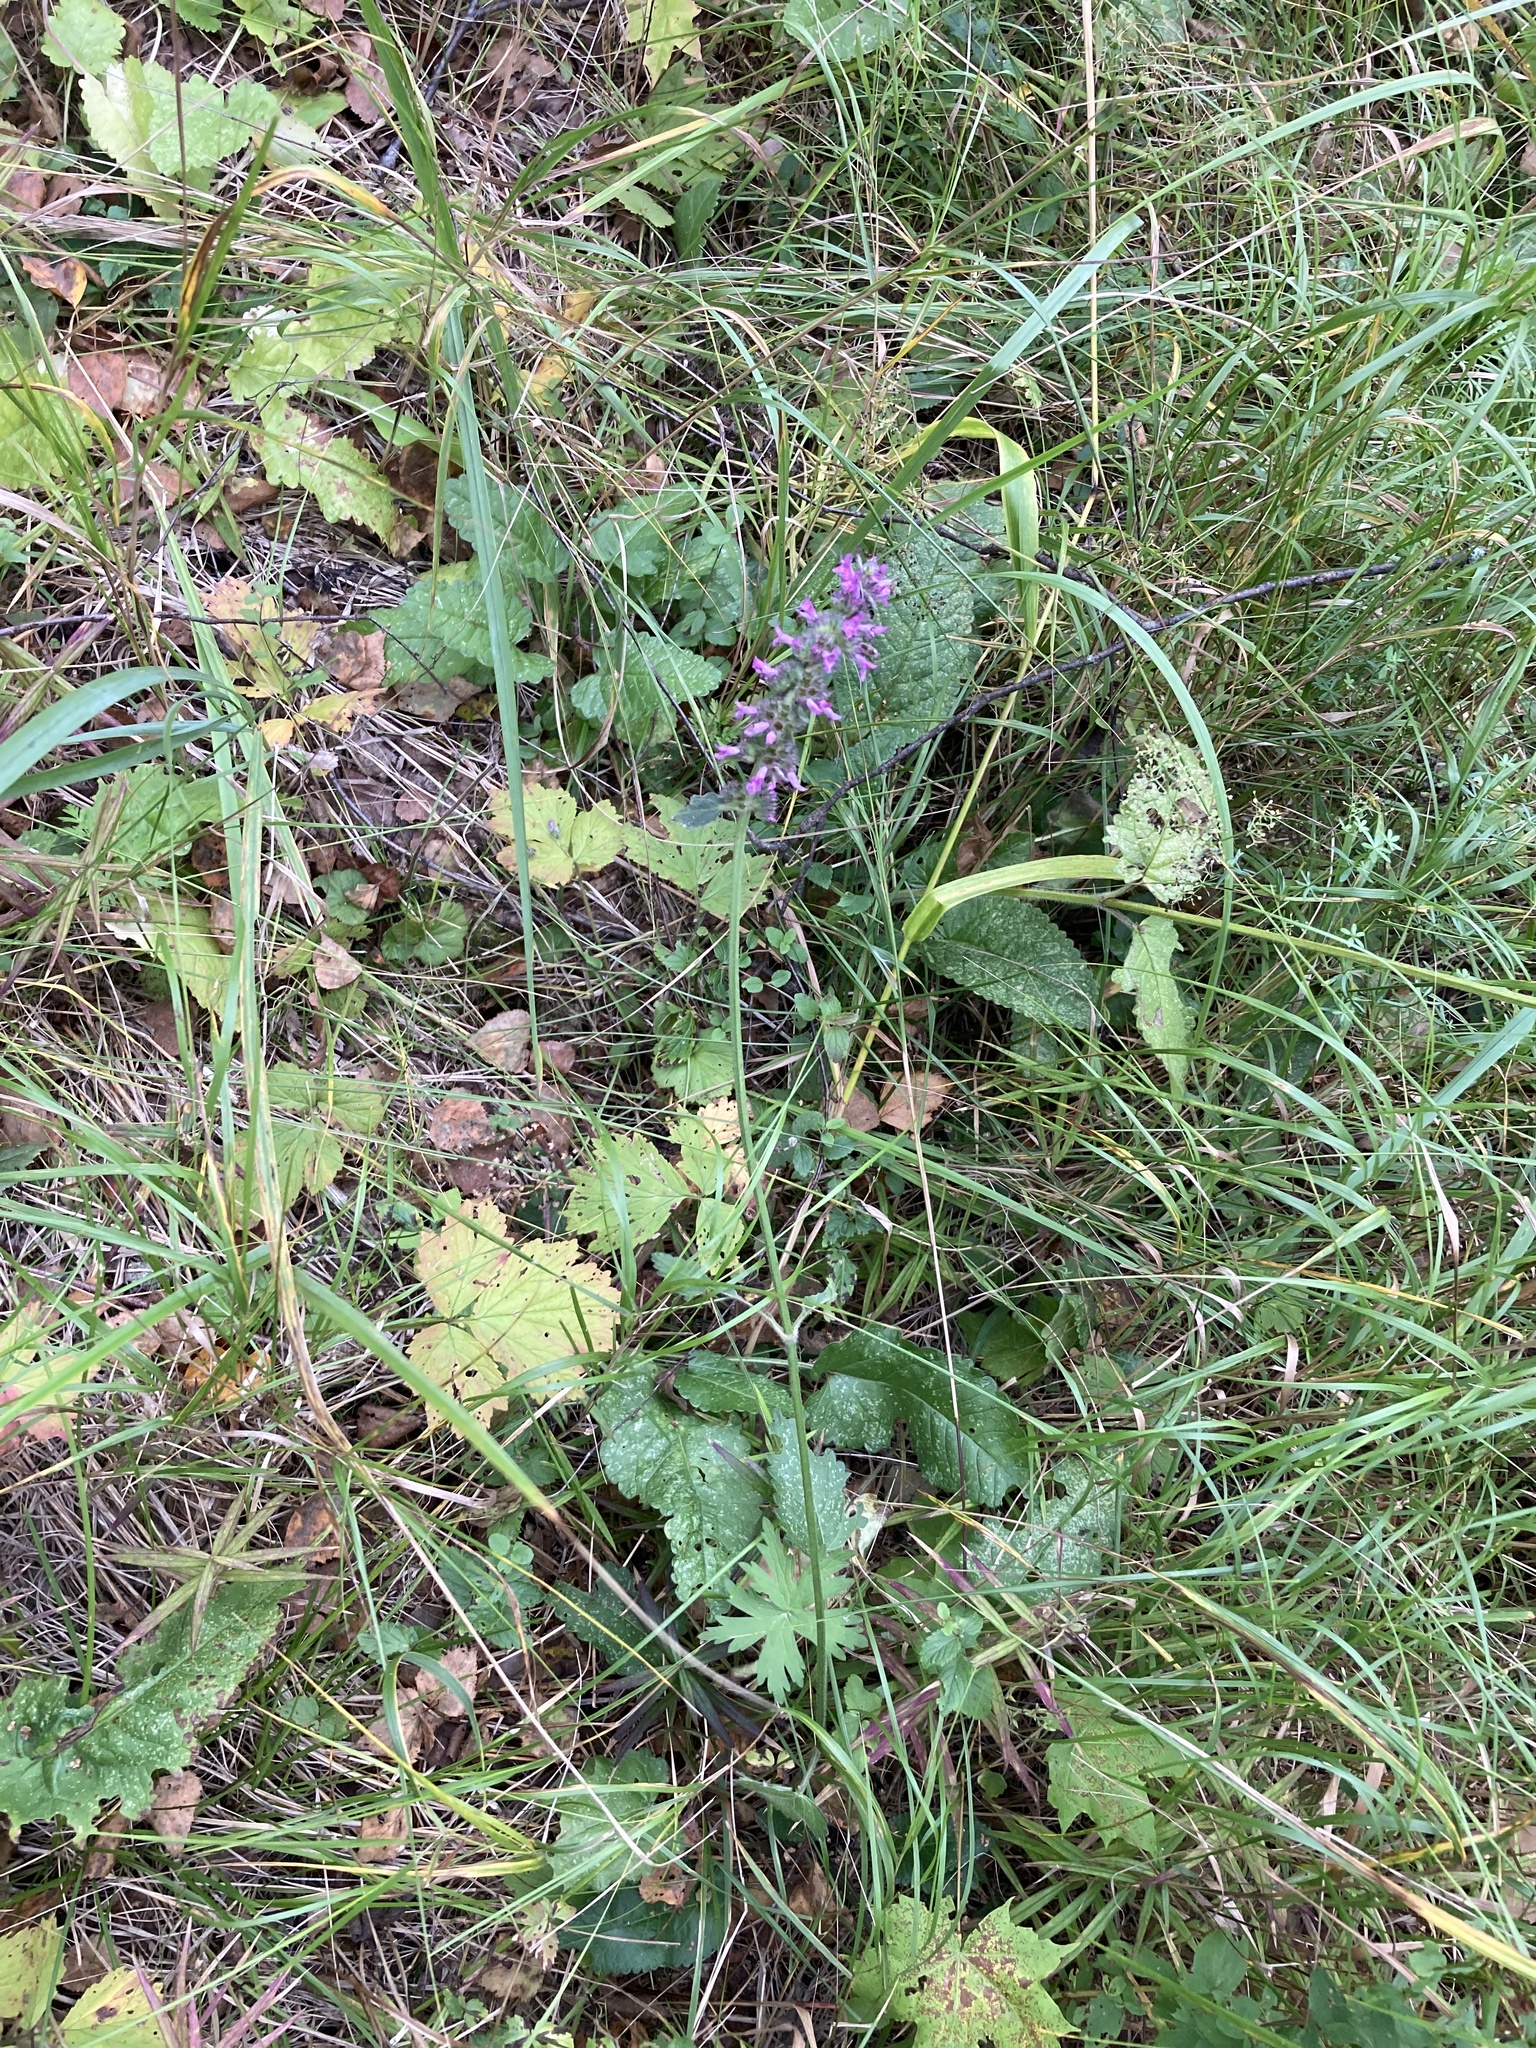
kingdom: Plantae
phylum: Tracheophyta
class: Magnoliopsida
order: Lamiales
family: Lamiaceae
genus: Betonica
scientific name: Betonica officinalis
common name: Bishop's-wort
